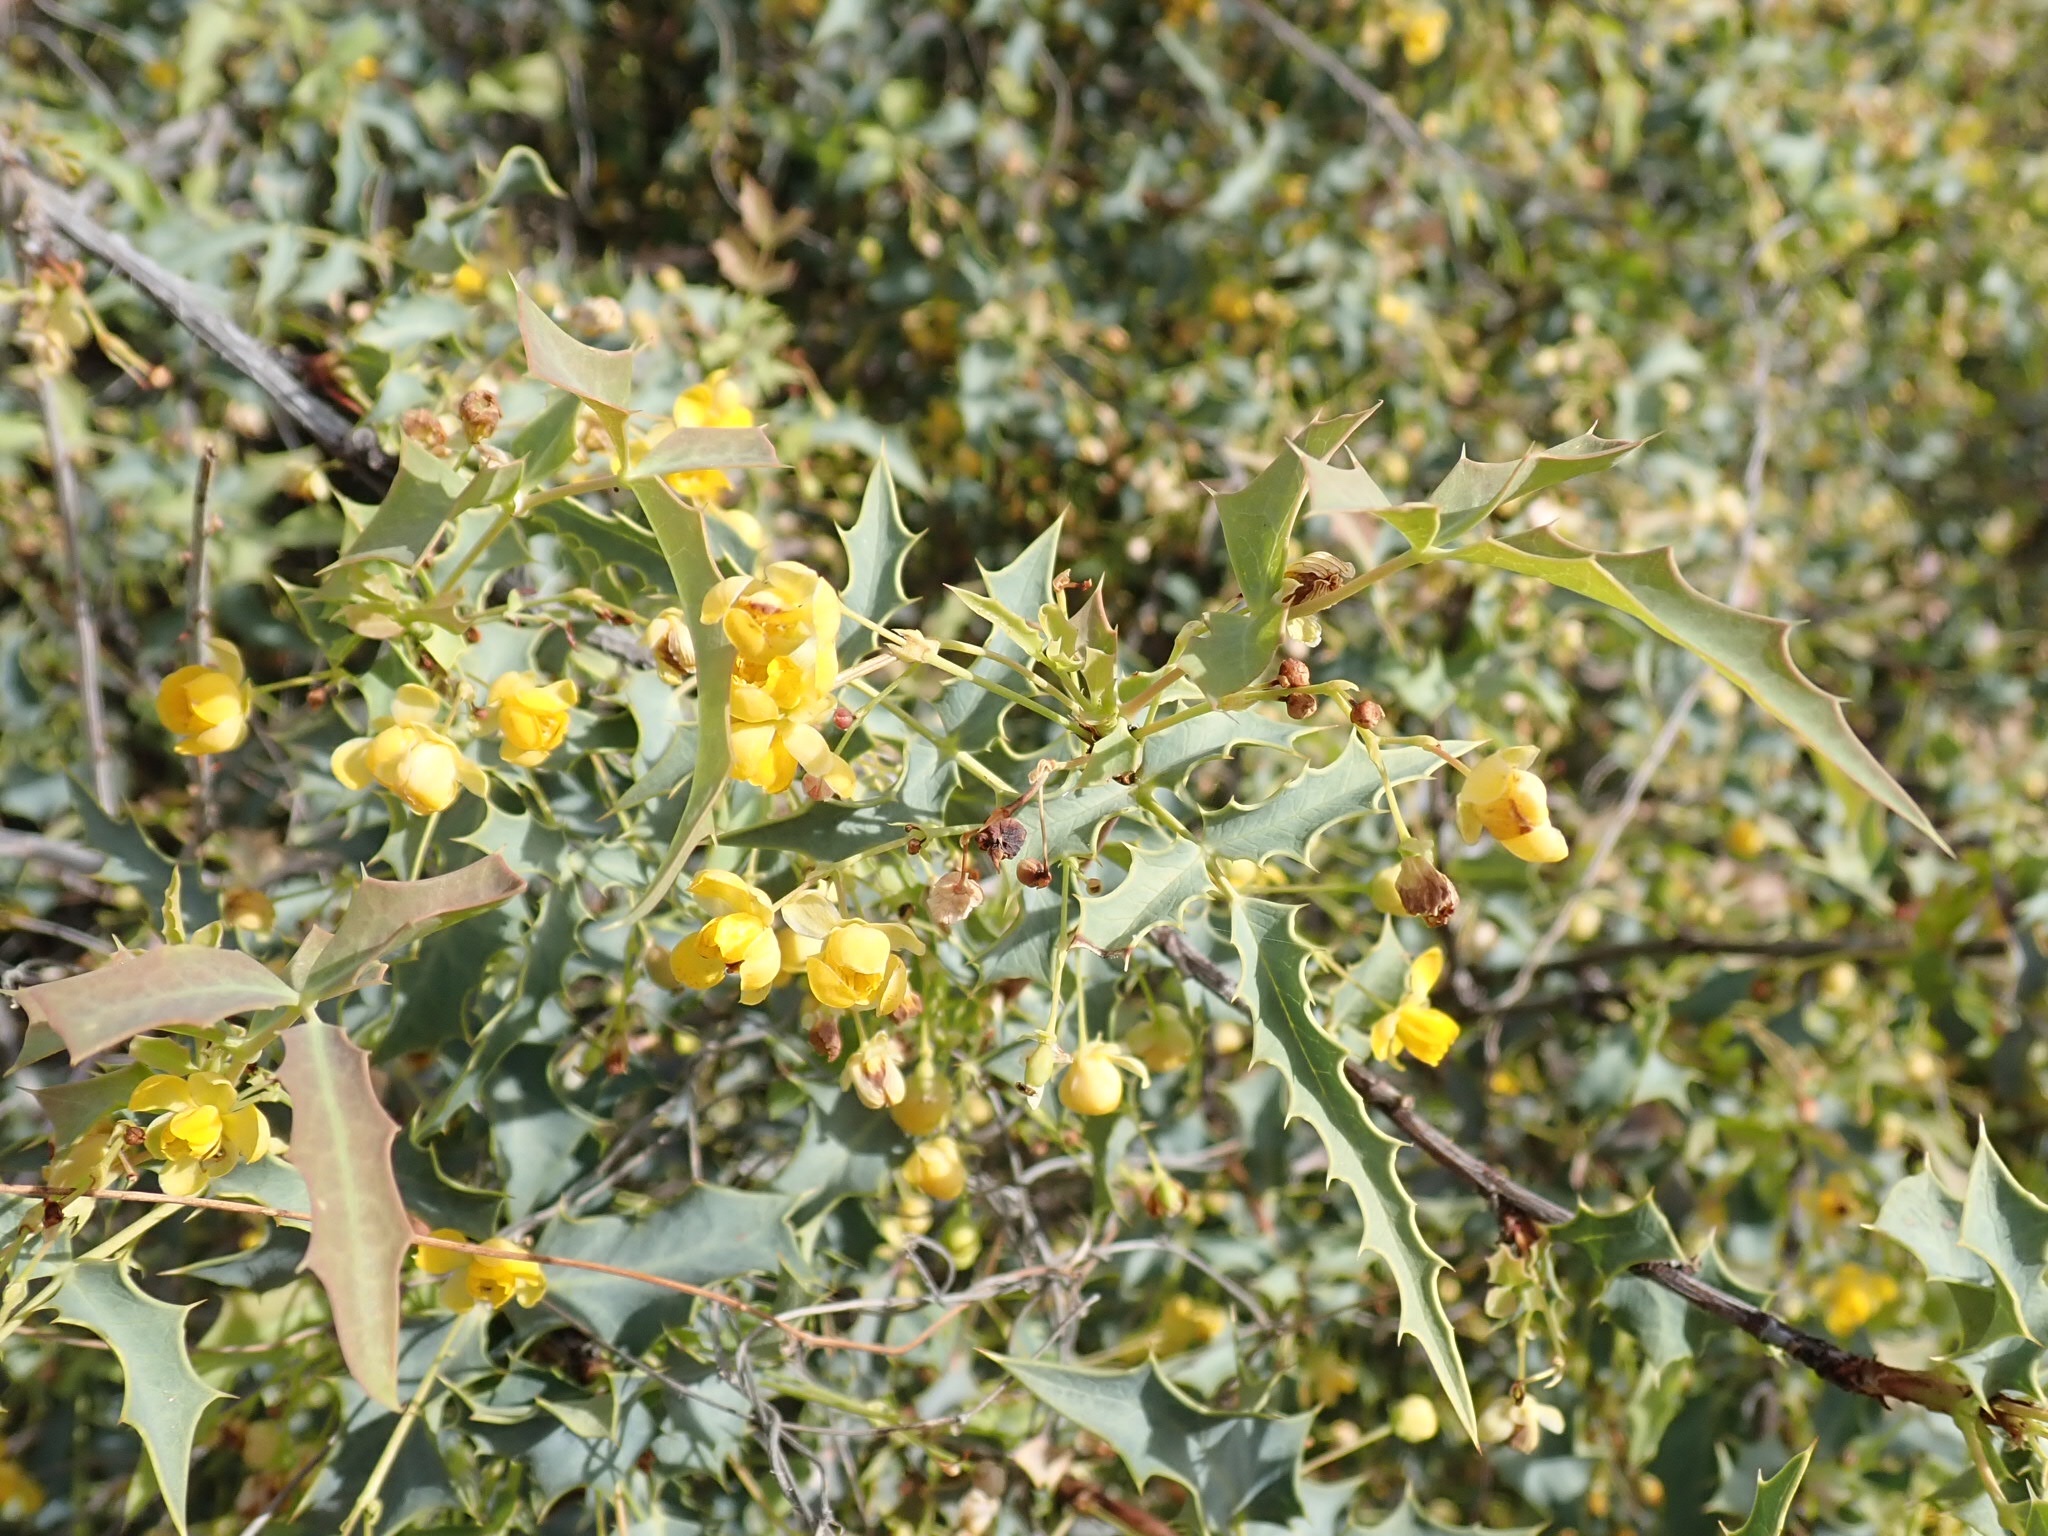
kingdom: Plantae
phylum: Tracheophyta
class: Magnoliopsida
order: Ranunculales
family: Berberidaceae
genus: Alloberberis
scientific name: Alloberberis haematocarpa
